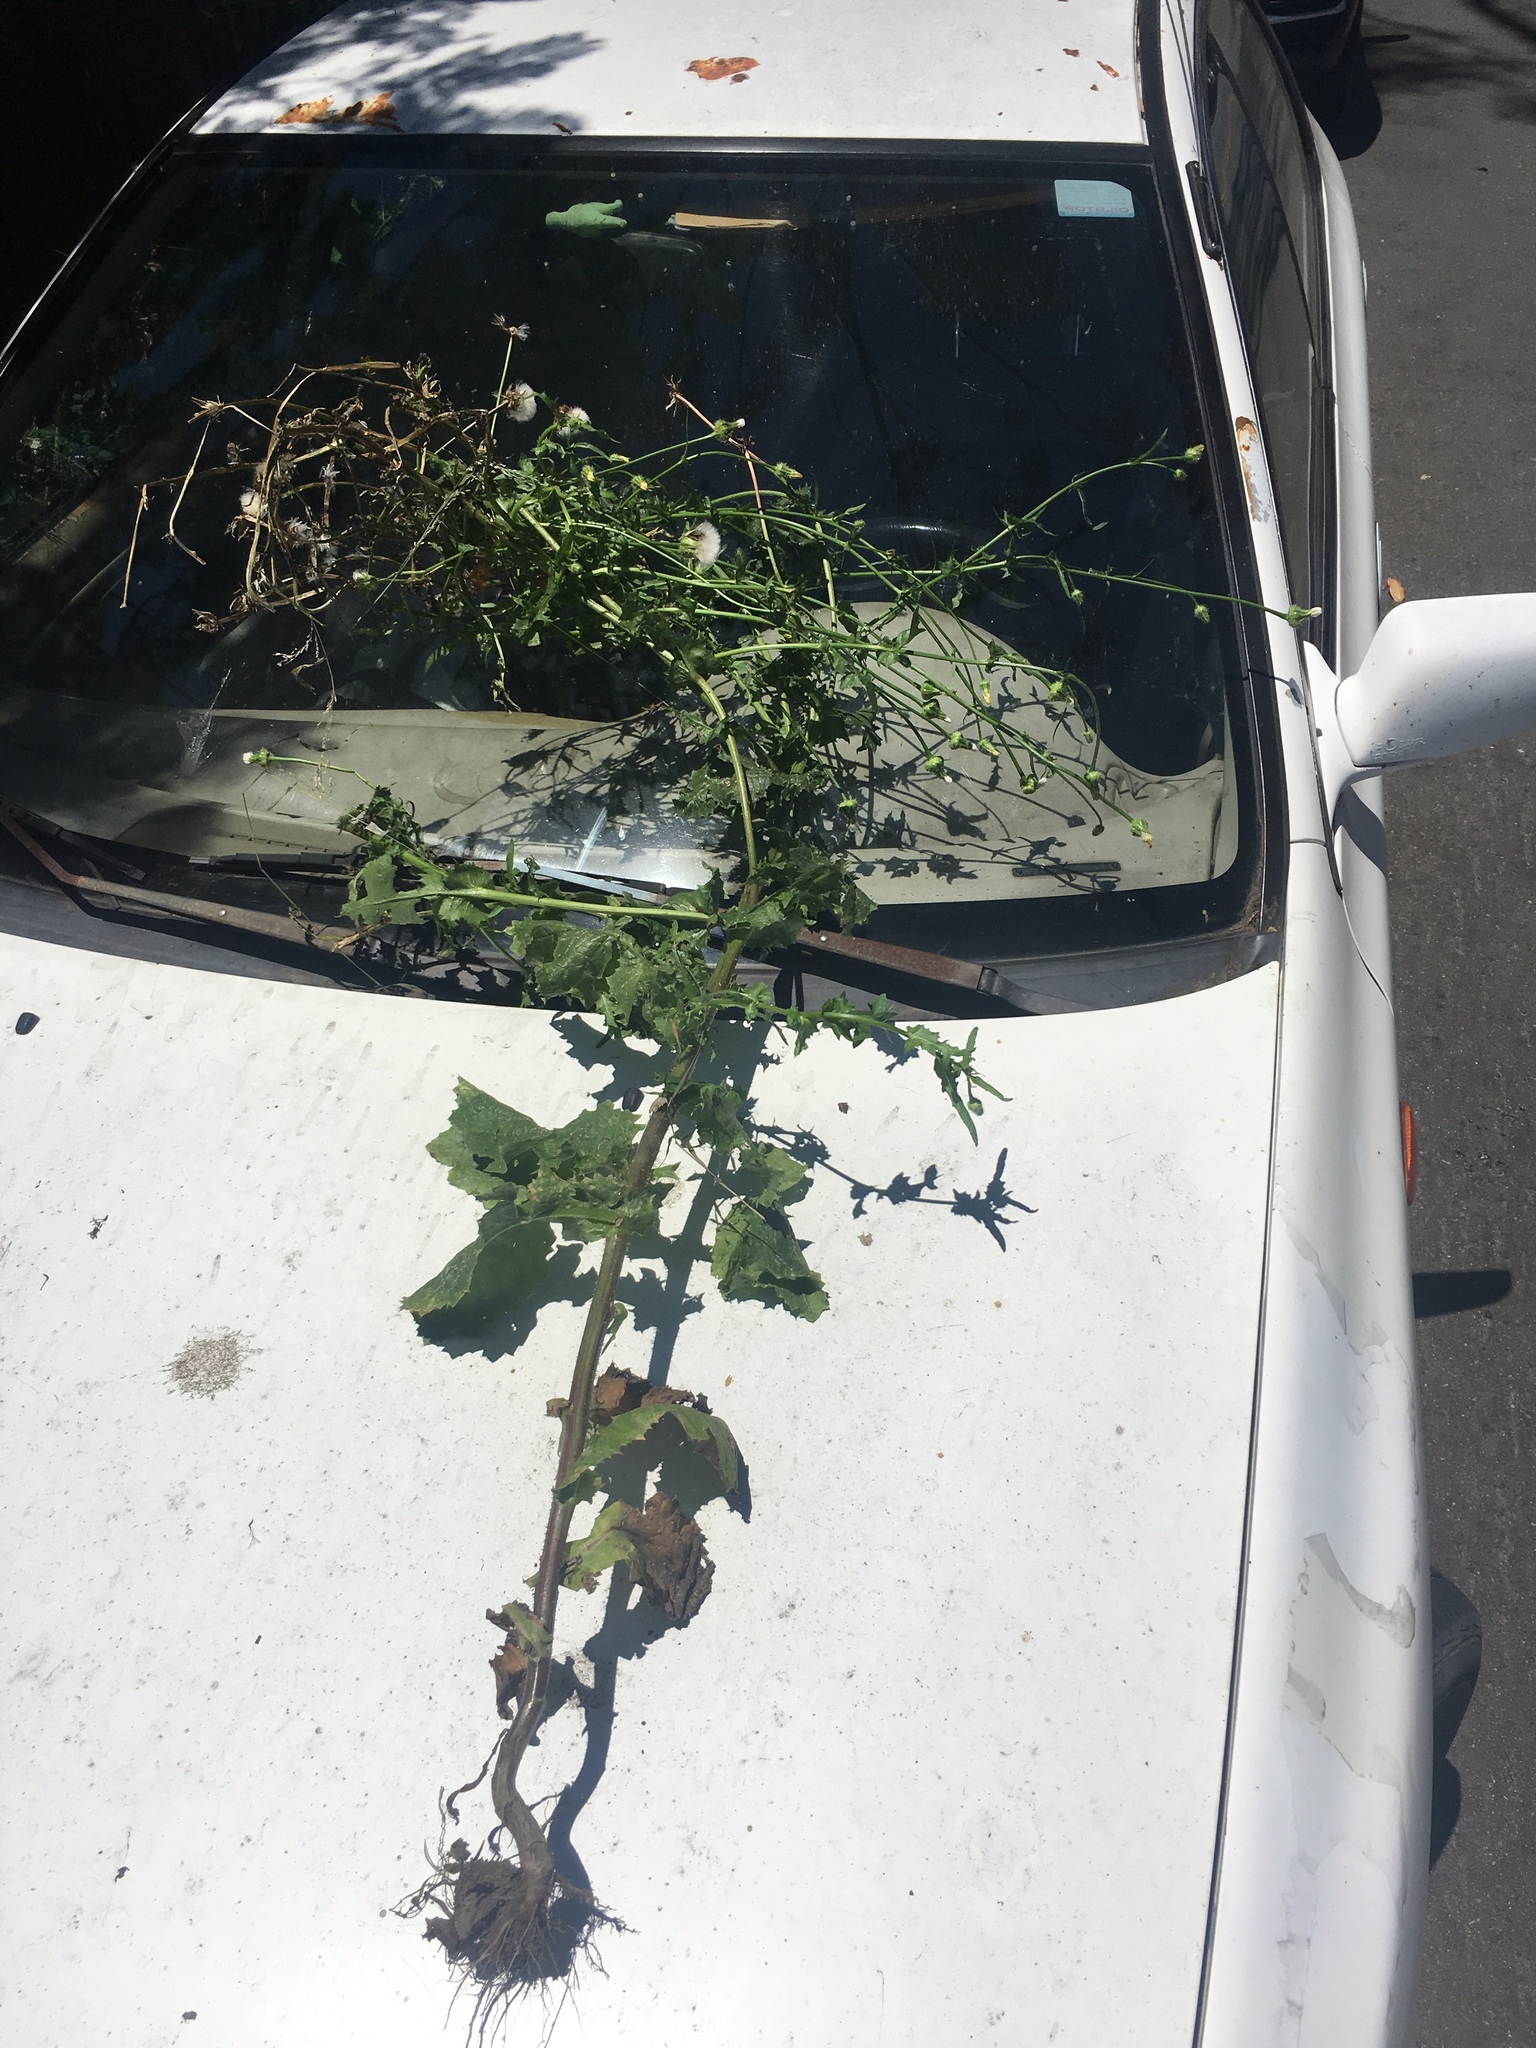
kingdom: Plantae
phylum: Tracheophyta
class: Magnoliopsida
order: Asterales
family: Asteraceae
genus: Urospermum
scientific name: Urospermum picroides
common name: False hawkbit
